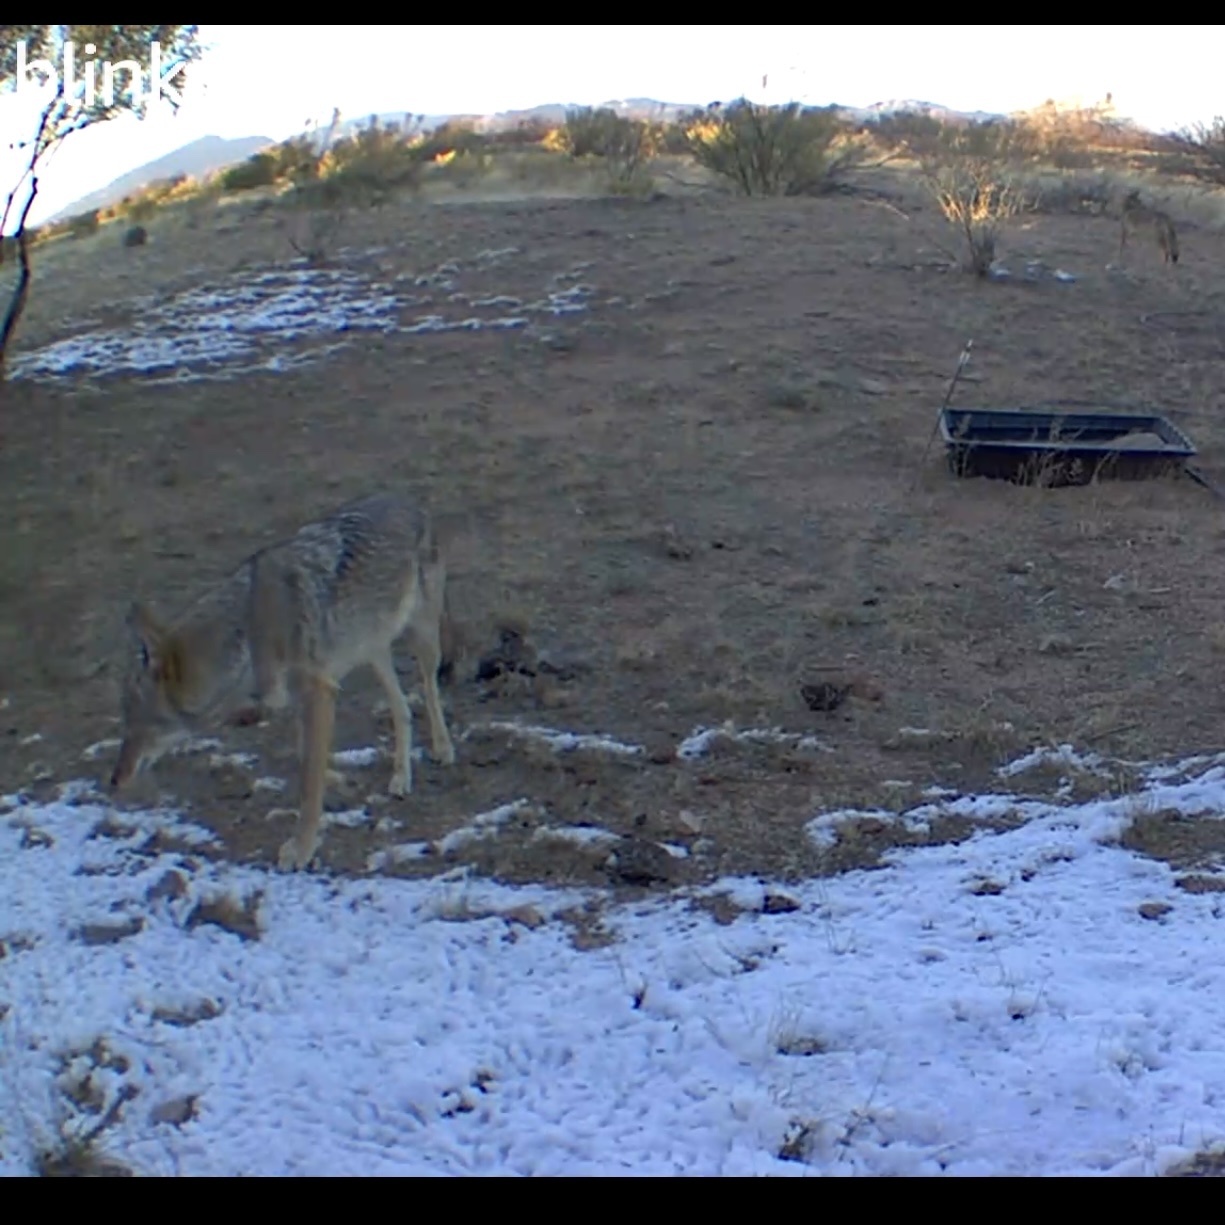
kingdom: Animalia
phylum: Chordata
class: Mammalia
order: Carnivora
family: Canidae
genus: Canis
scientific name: Canis latrans
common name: Coyote
